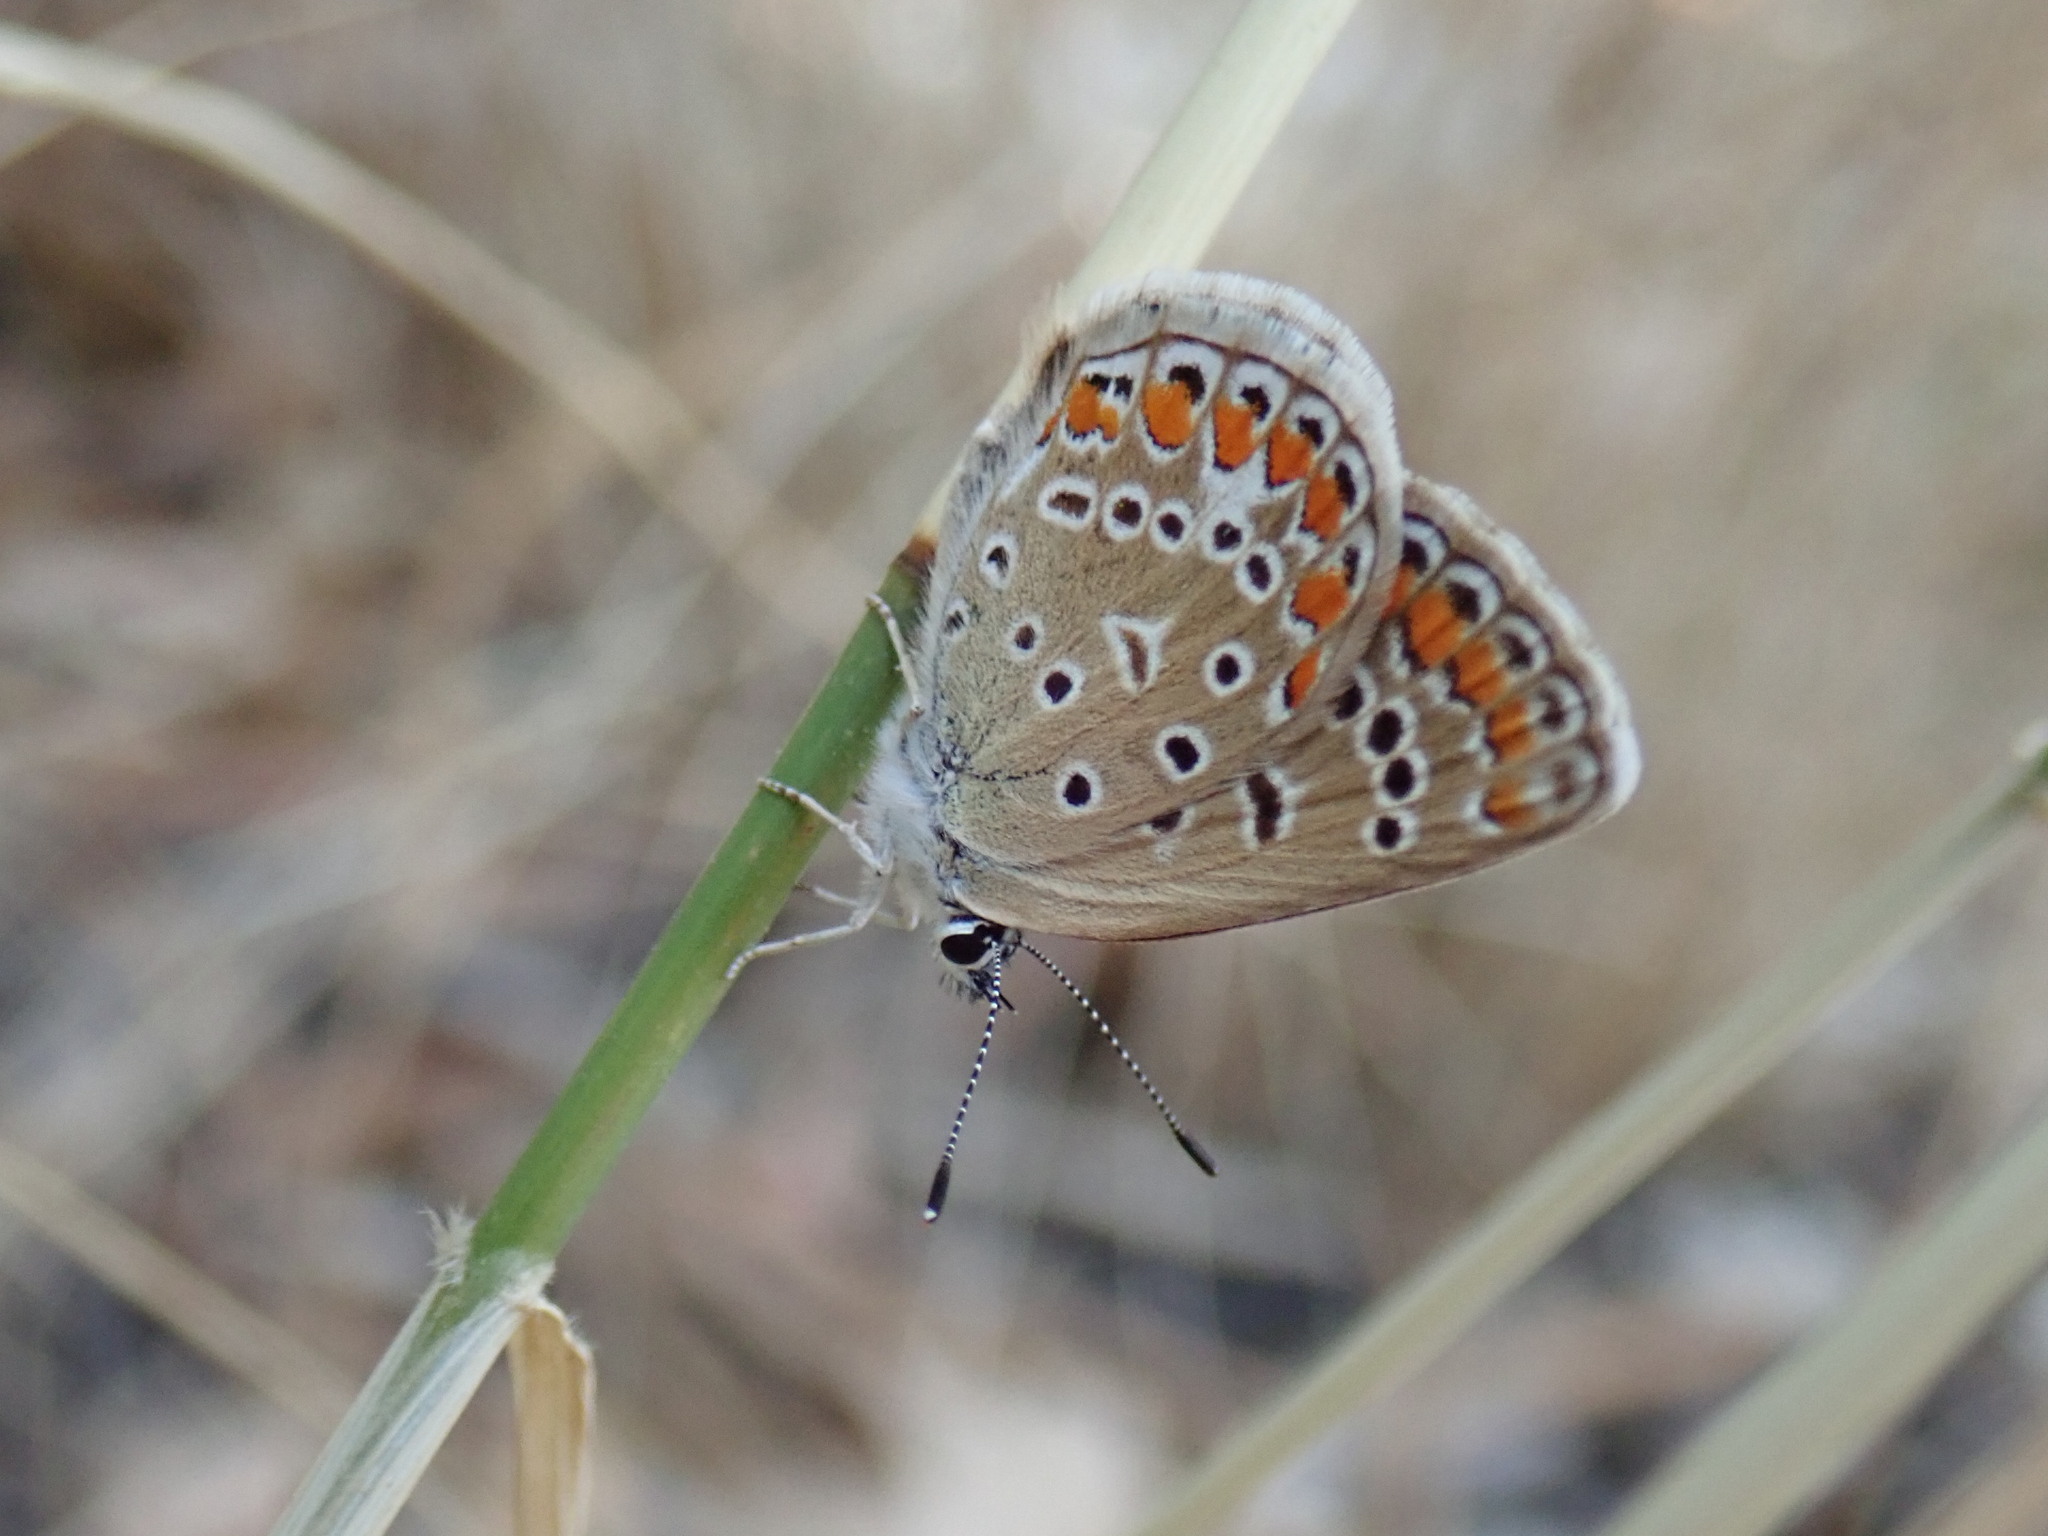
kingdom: Animalia
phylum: Arthropoda
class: Insecta
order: Lepidoptera
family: Lycaenidae
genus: Polyommatus
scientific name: Polyommatus icarus
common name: Common blue
